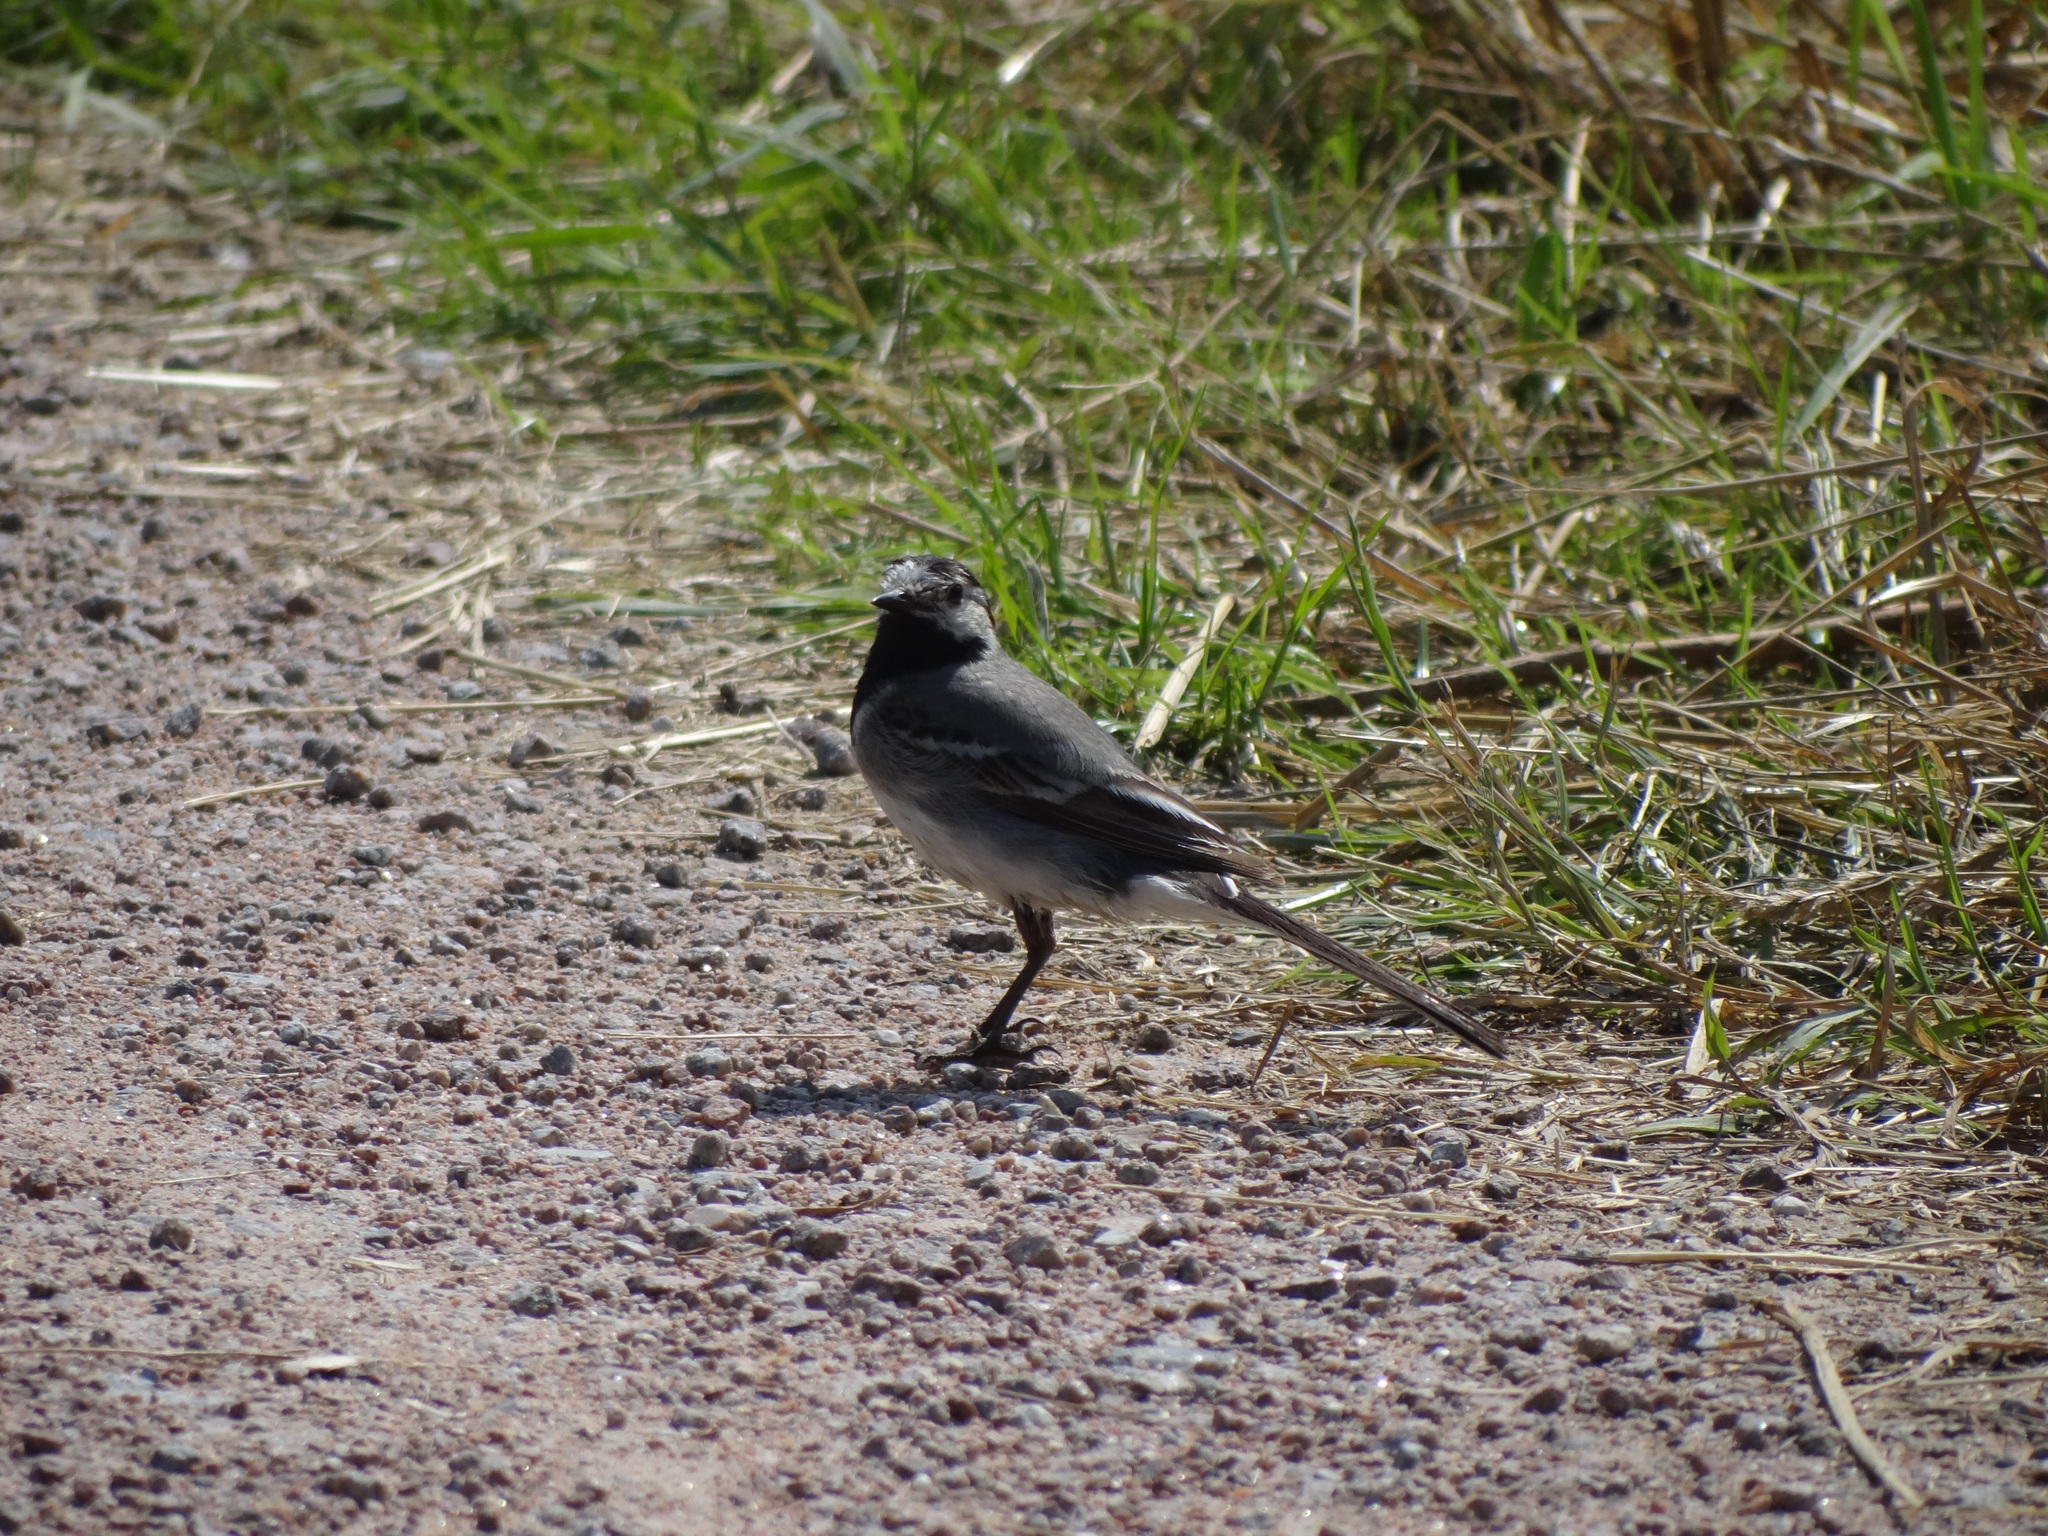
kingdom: Animalia
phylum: Chordata
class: Aves
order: Passeriformes
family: Motacillidae
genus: Motacilla
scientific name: Motacilla alba
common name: White wagtail
